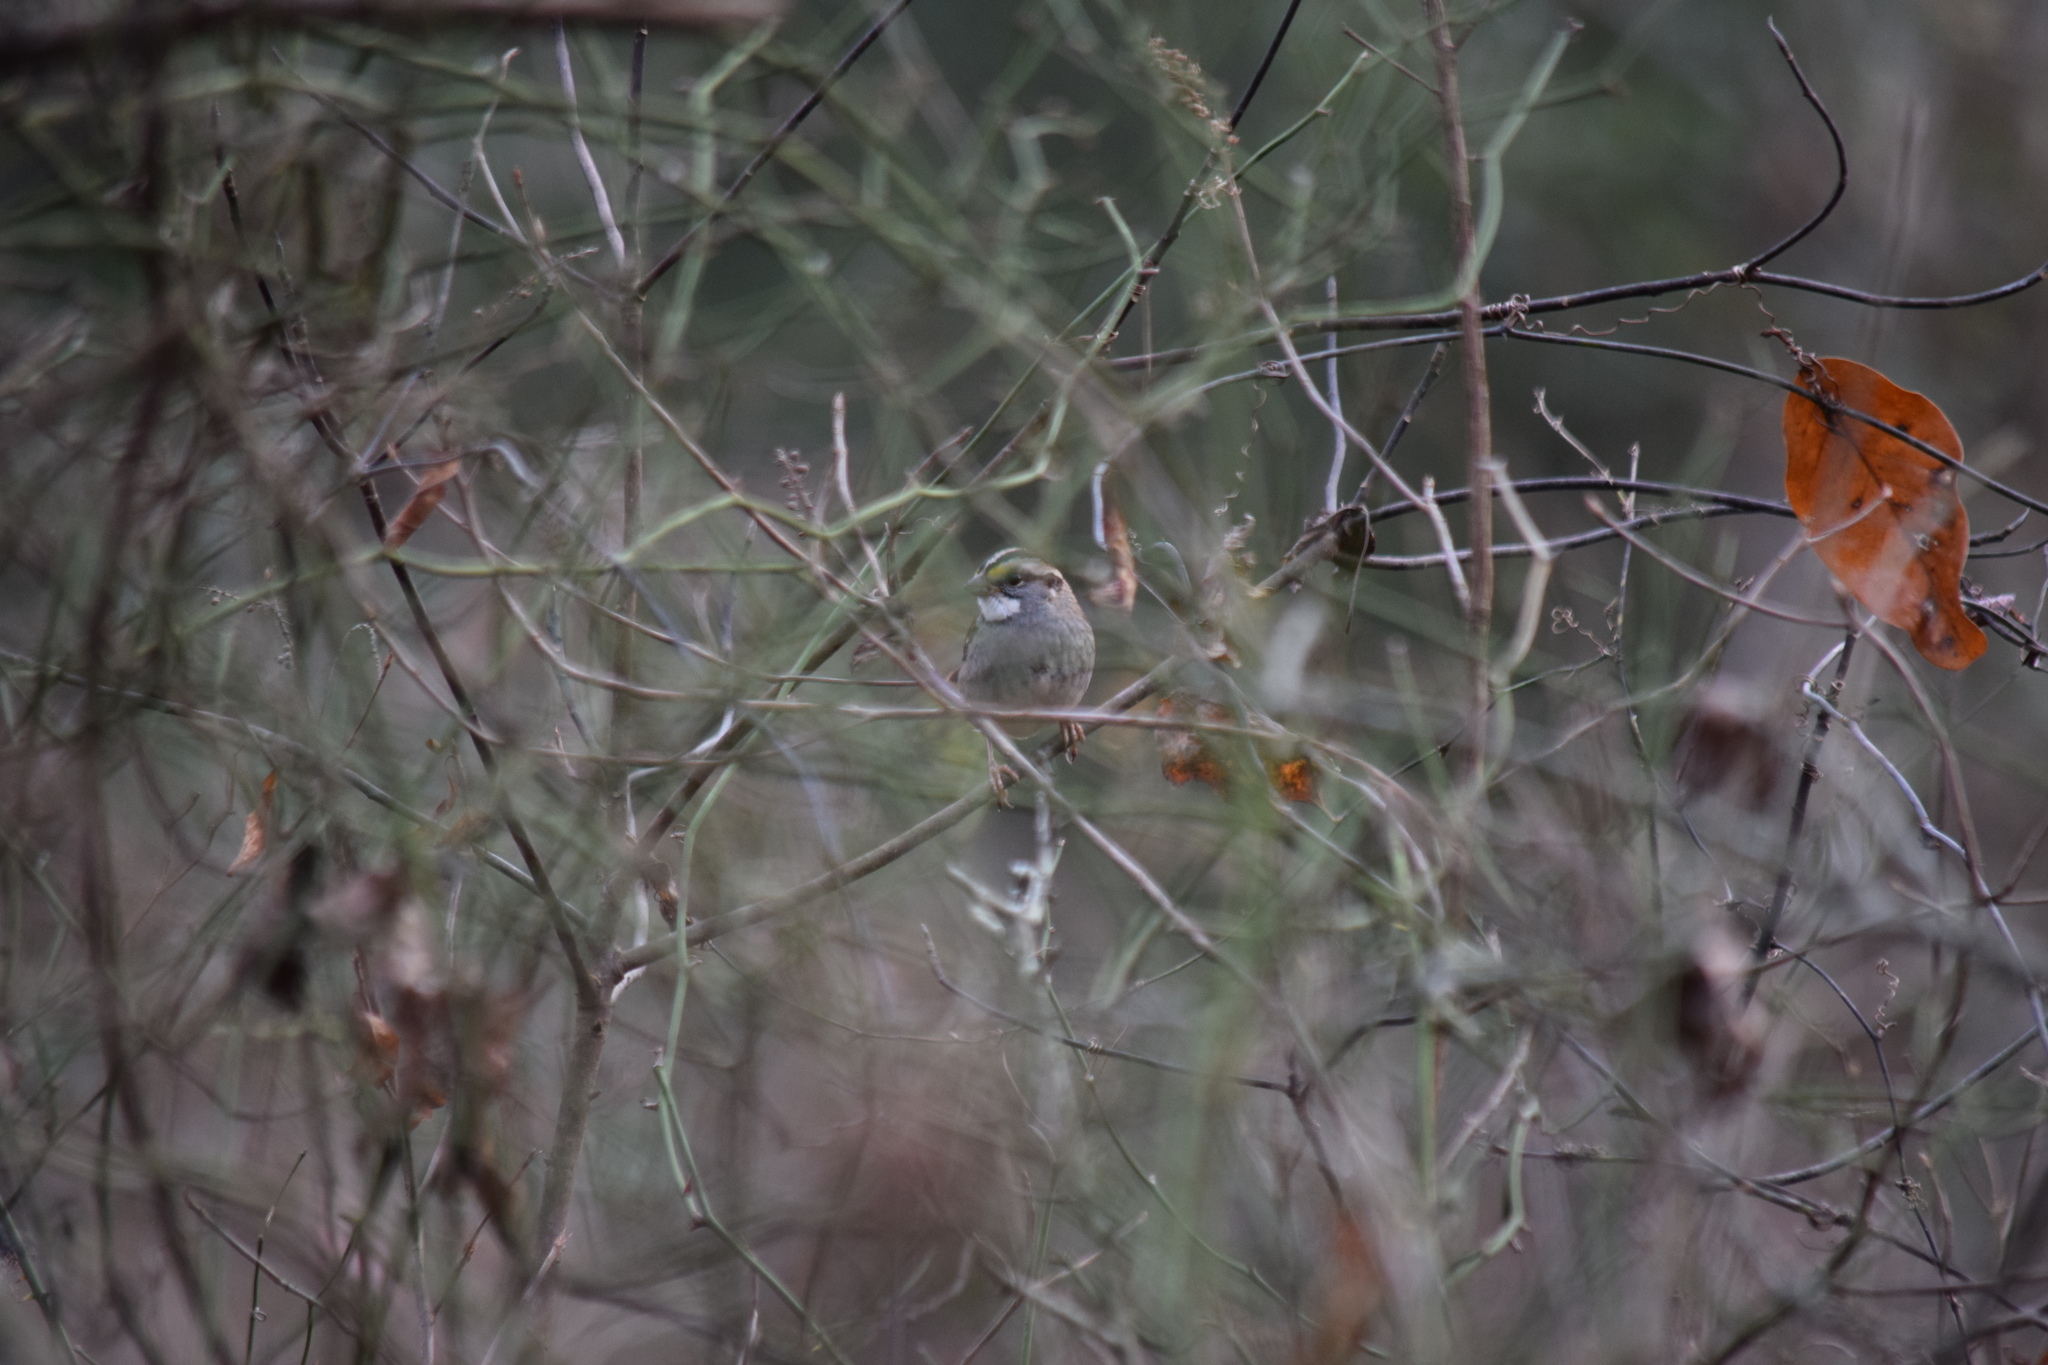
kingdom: Animalia
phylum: Chordata
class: Aves
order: Passeriformes
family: Passerellidae
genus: Zonotrichia
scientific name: Zonotrichia albicollis
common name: White-throated sparrow
